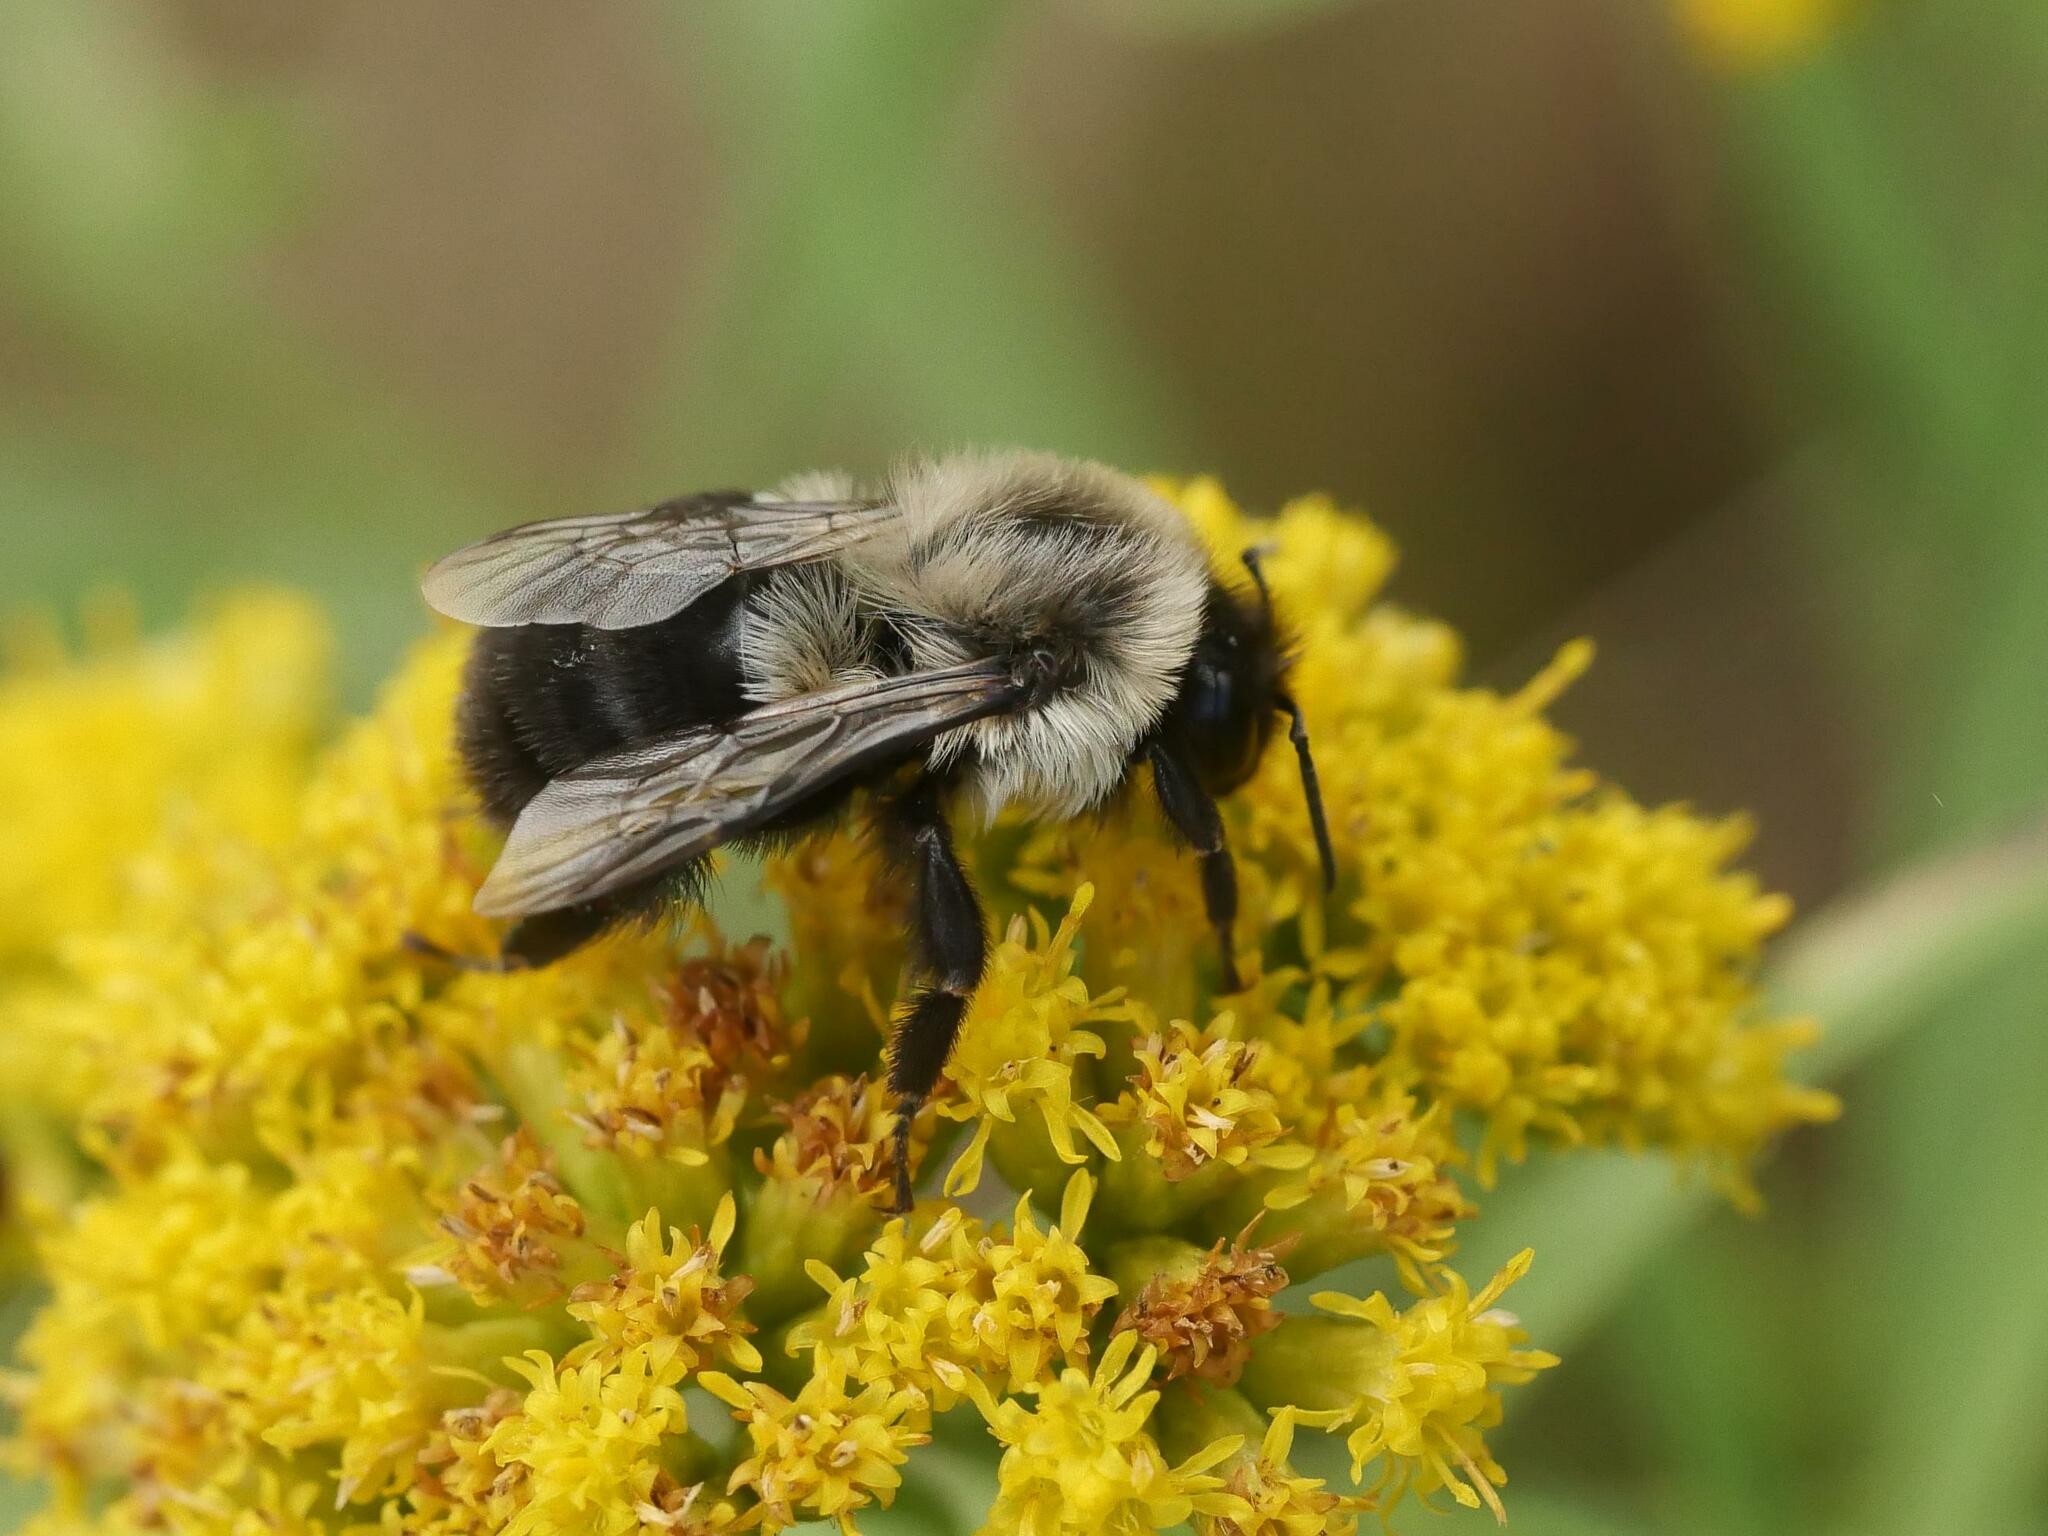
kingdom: Animalia
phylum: Arthropoda
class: Insecta
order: Hymenoptera
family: Apidae
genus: Bombus
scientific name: Bombus impatiens
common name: Common eastern bumble bee
